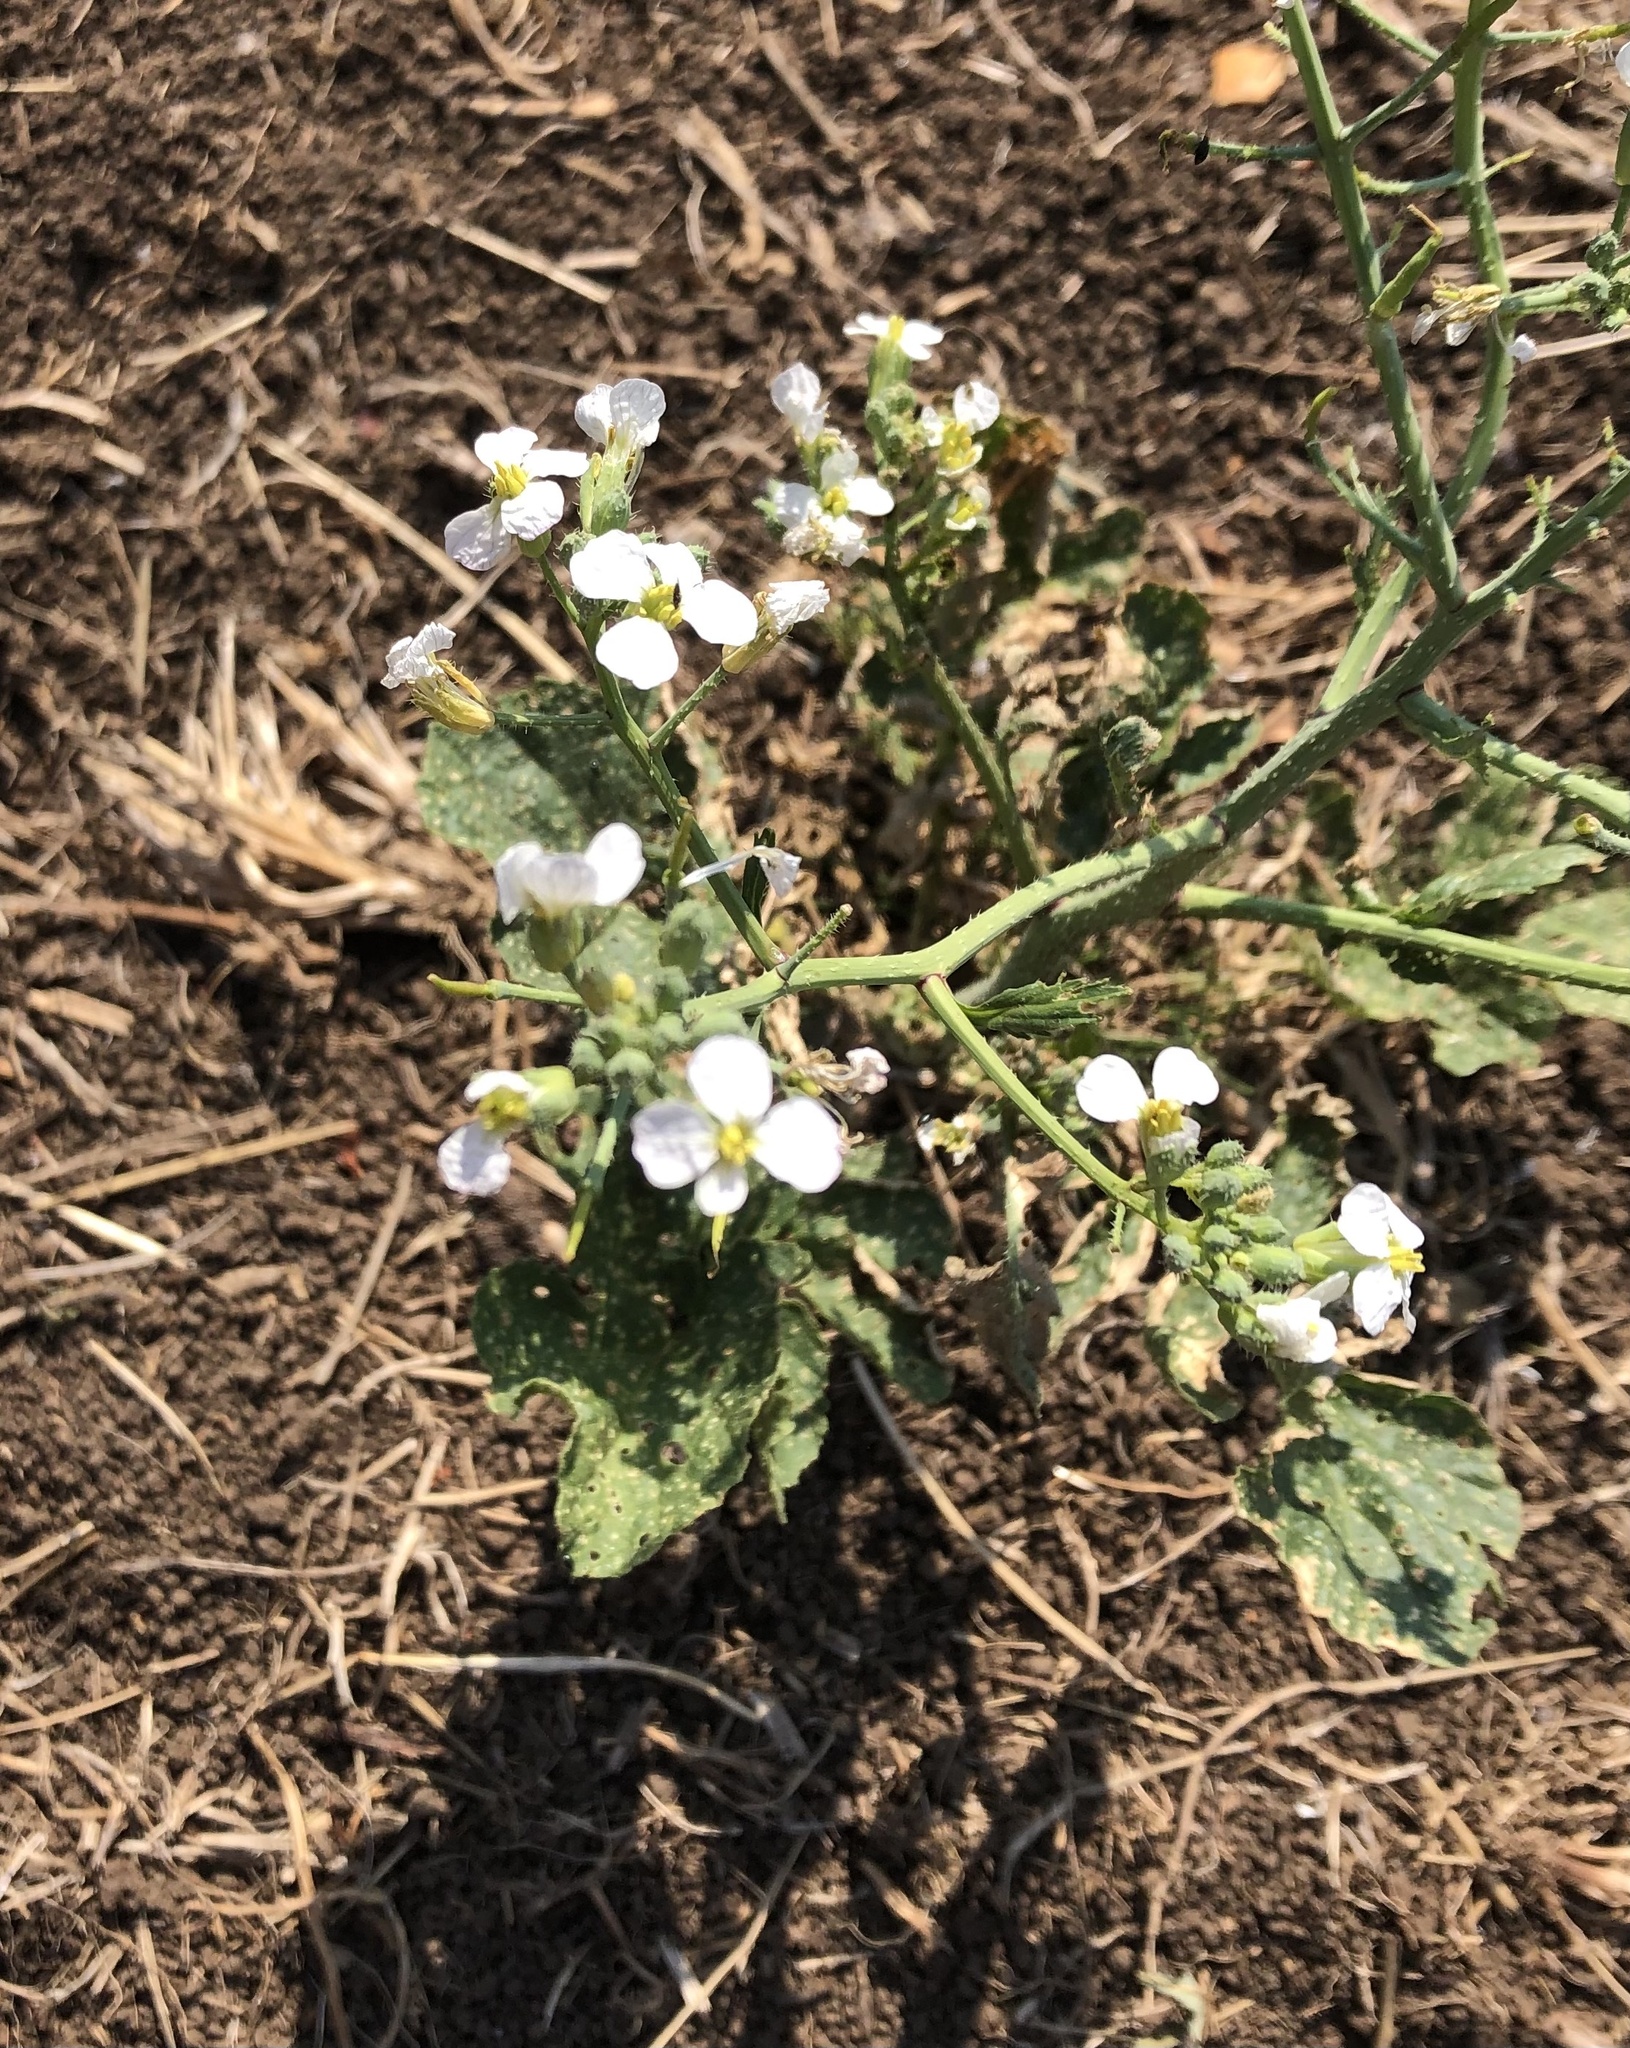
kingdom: Plantae
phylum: Tracheophyta
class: Magnoliopsida
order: Brassicales
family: Brassicaceae
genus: Raphanus
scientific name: Raphanus raphanistrum
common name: Wild radish
